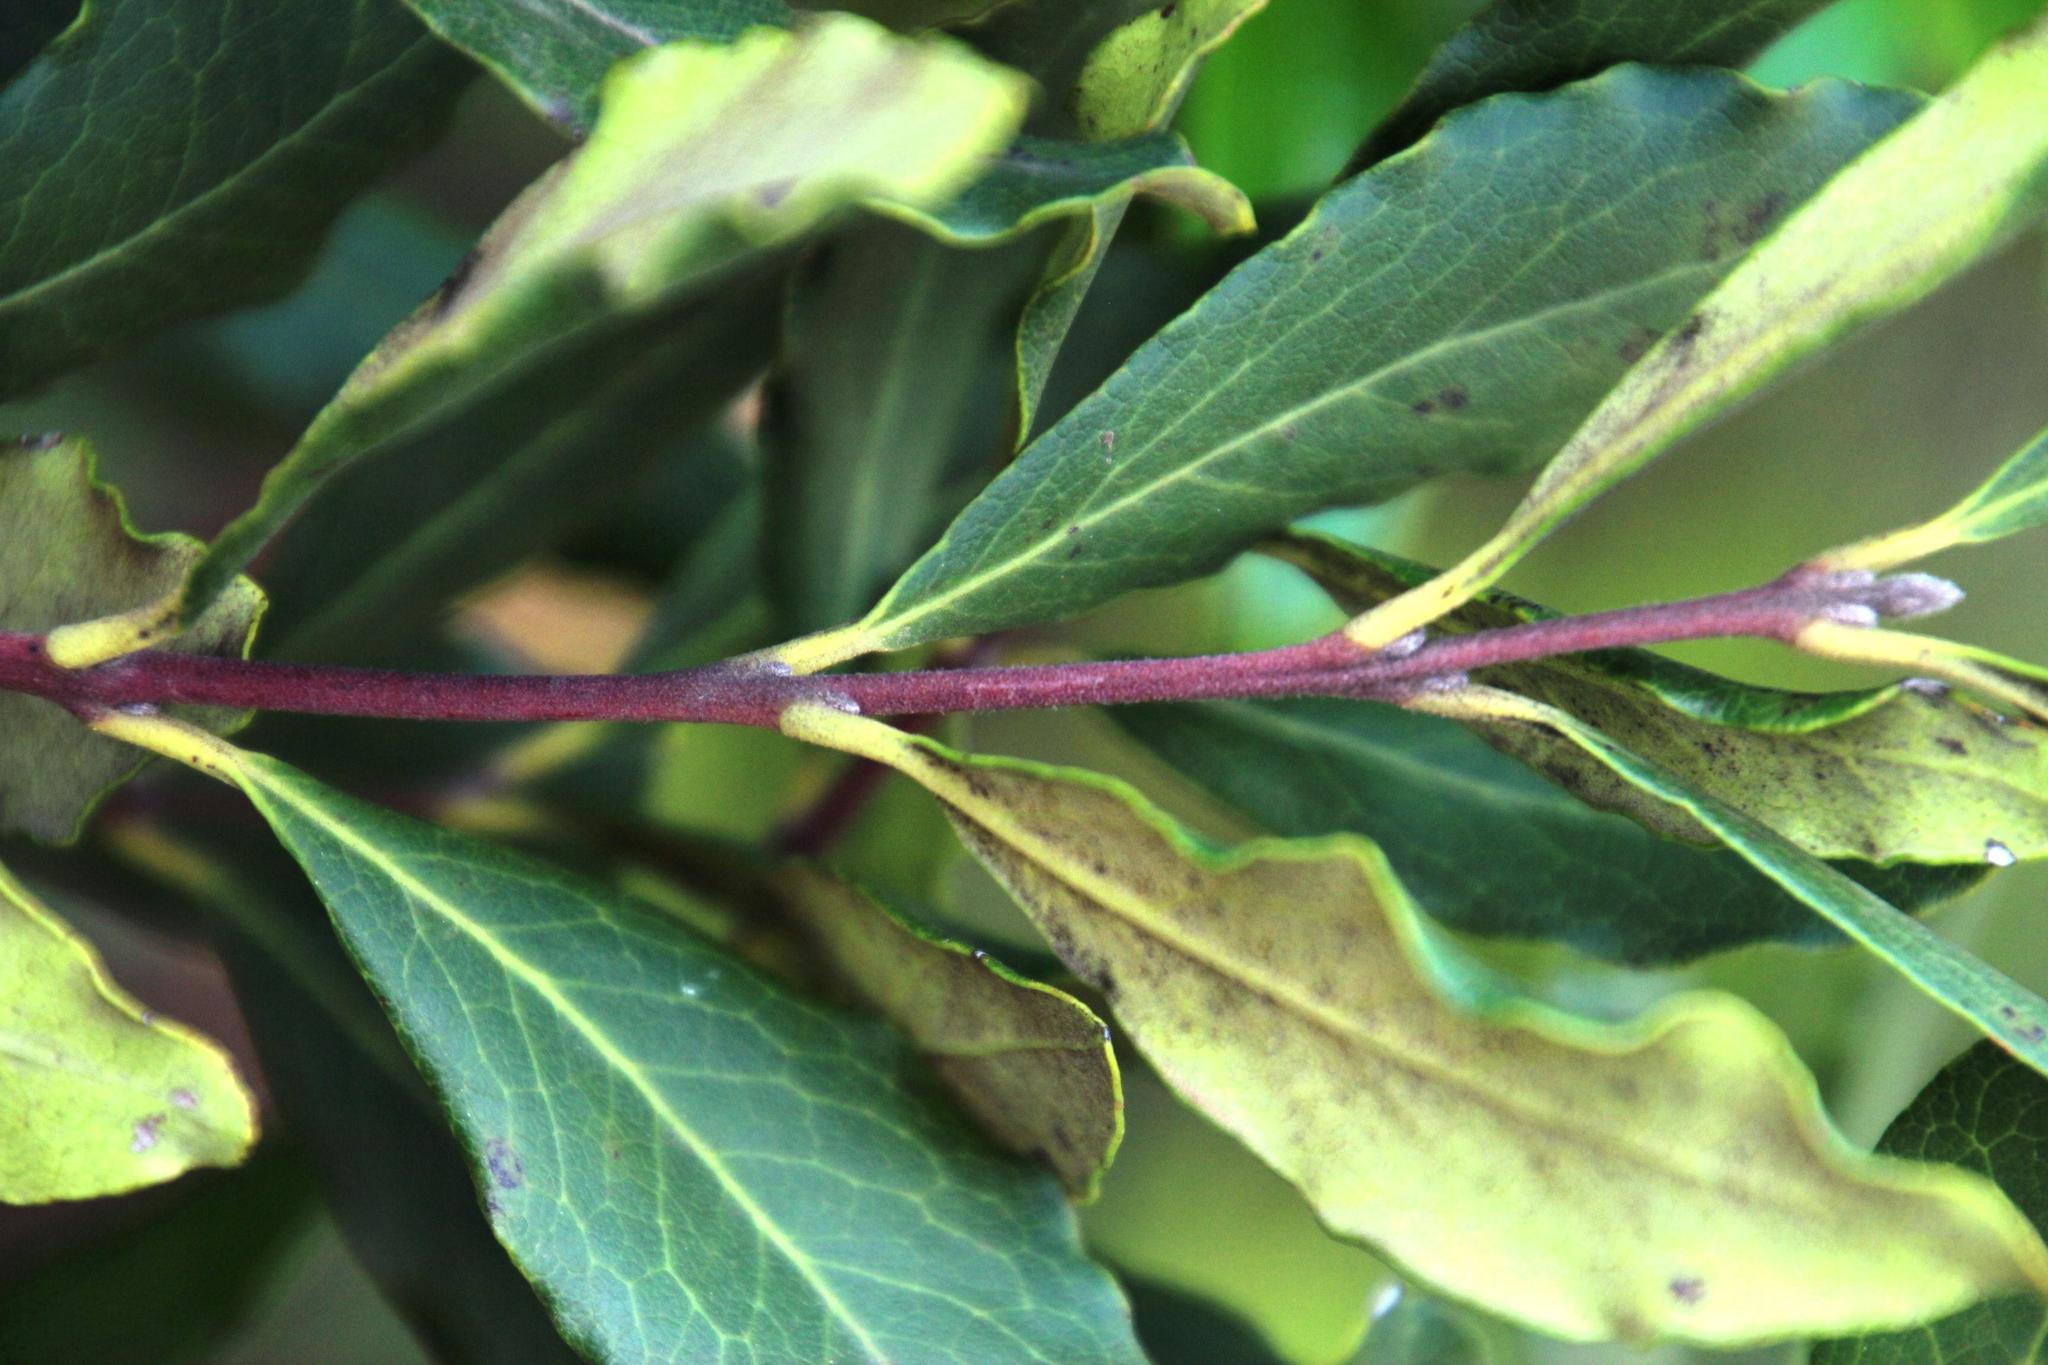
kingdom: Plantae
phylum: Tracheophyta
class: Magnoliopsida
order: Ericales
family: Ebenaceae
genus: Euclea
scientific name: Euclea crispa
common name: Blue guarri
